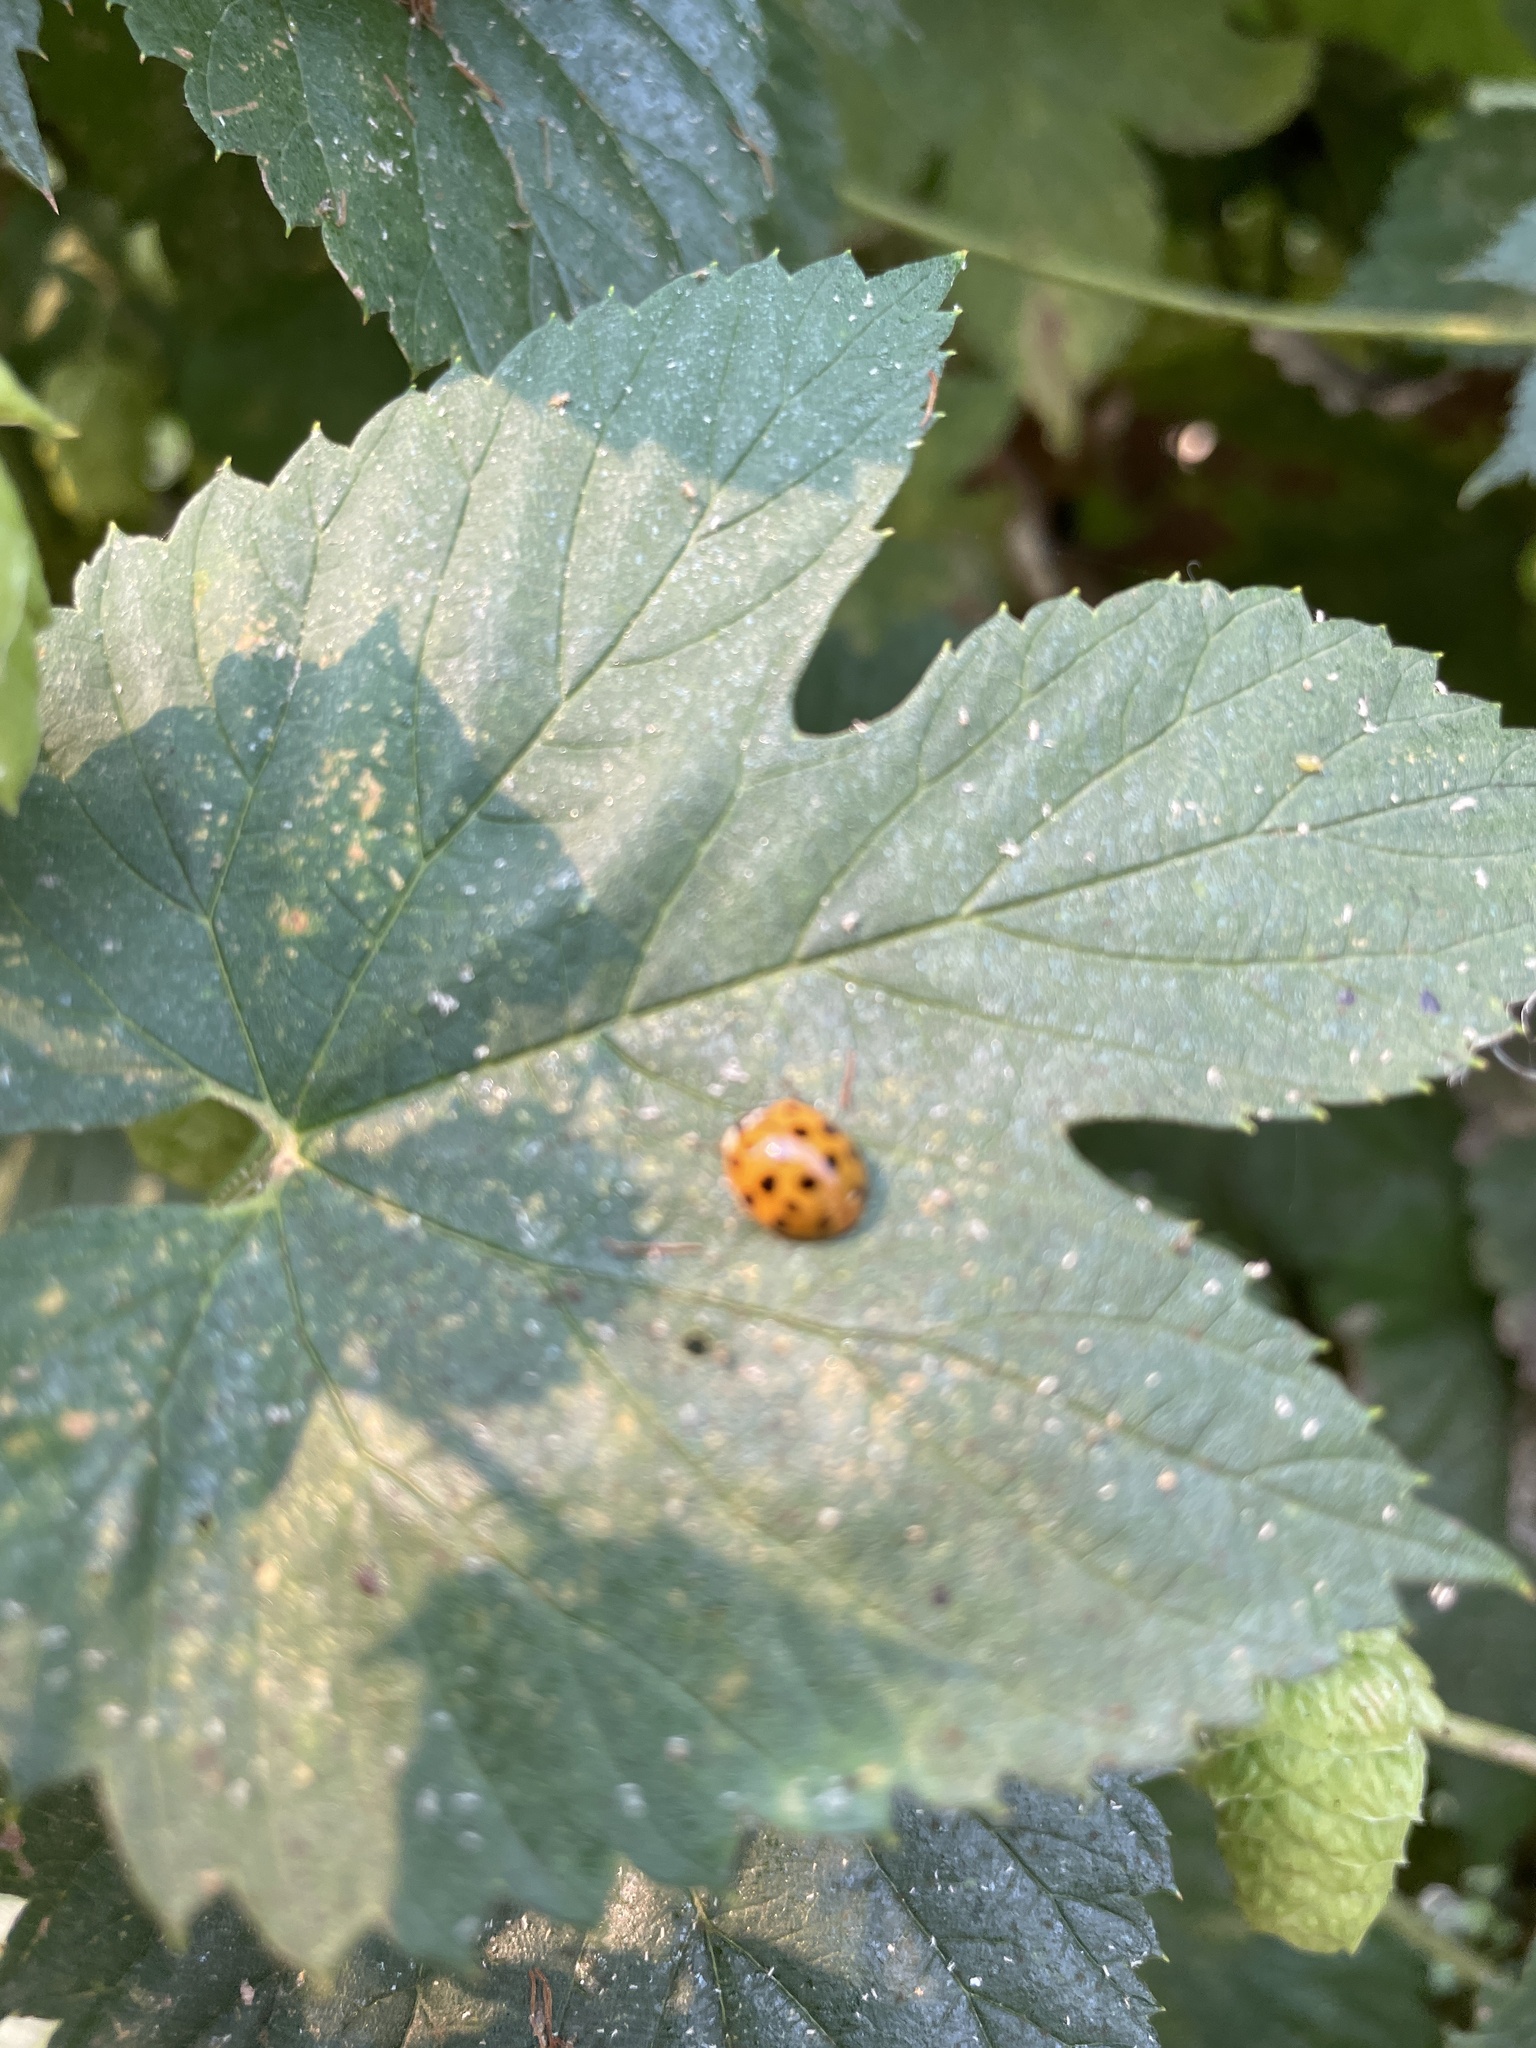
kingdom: Animalia
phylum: Arthropoda
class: Insecta
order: Coleoptera
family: Coccinellidae
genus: Harmonia
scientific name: Harmonia axyridis
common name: Harlequin ladybird
